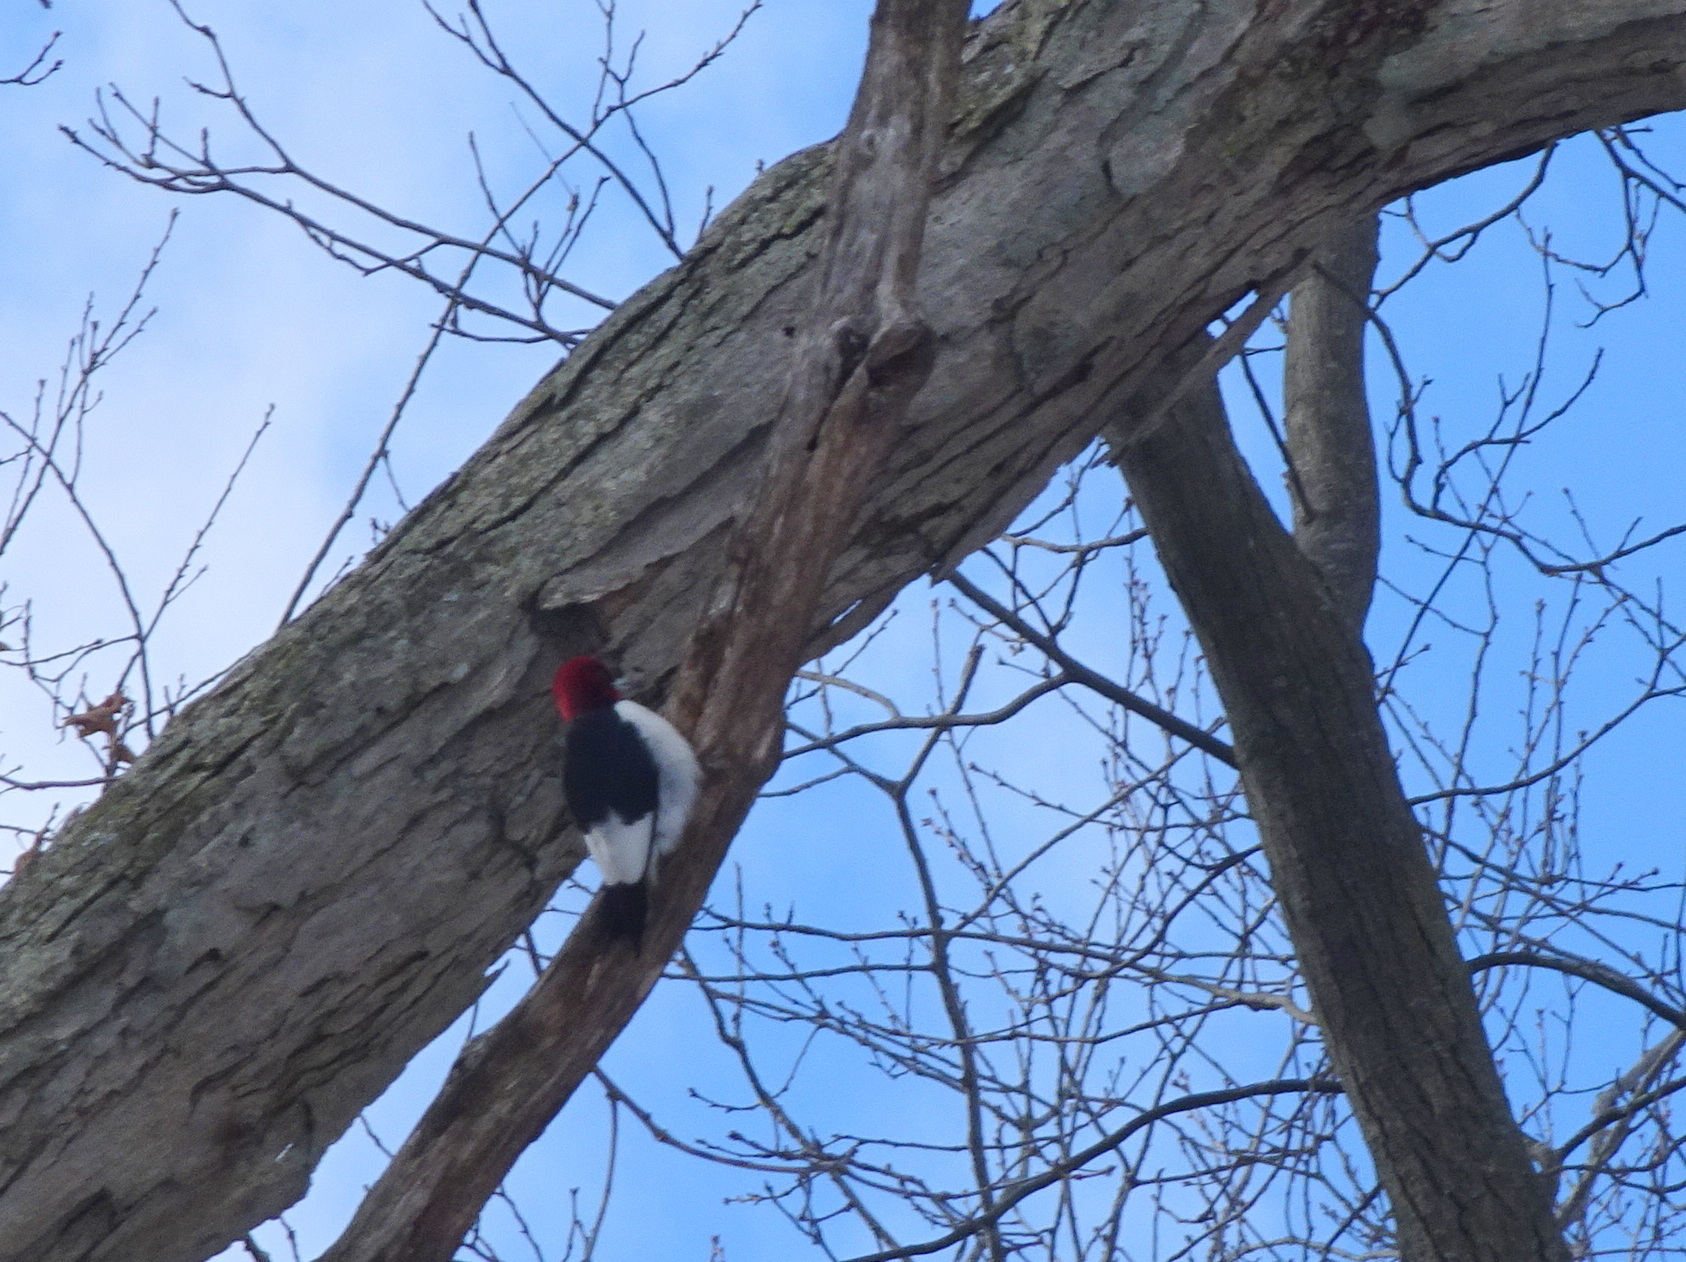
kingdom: Animalia
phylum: Chordata
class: Aves
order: Piciformes
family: Picidae
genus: Melanerpes
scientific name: Melanerpes erythrocephalus
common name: Red-headed woodpecker
